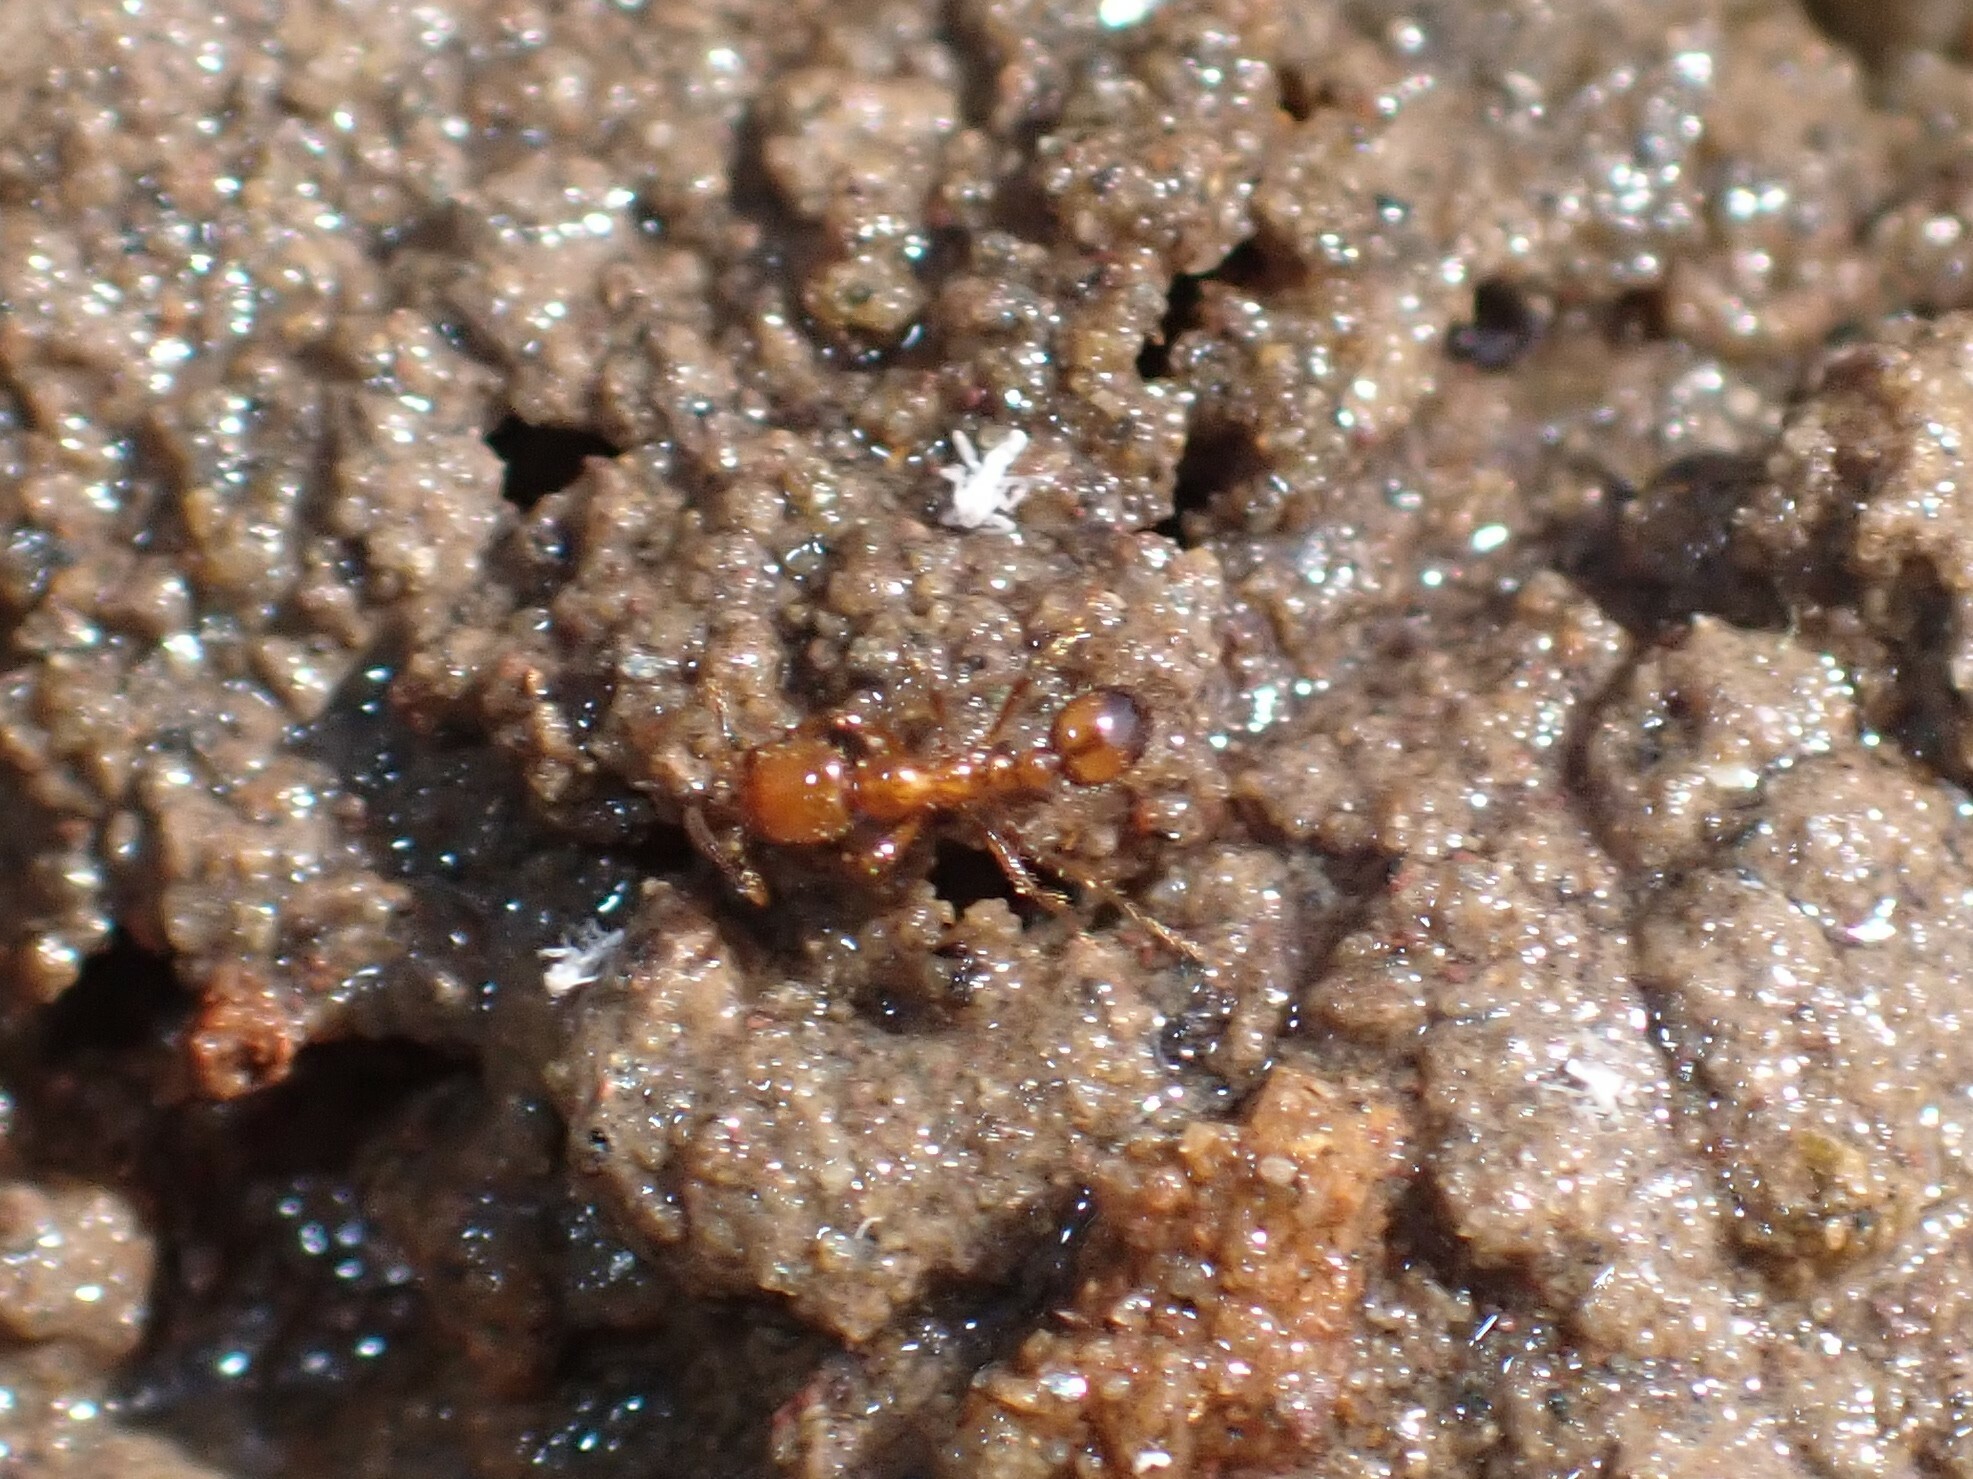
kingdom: Animalia
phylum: Arthropoda
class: Insecta
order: Hymenoptera
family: Formicidae
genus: Solenopsis
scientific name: Solenopsis geminata
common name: Tropical fire ant
